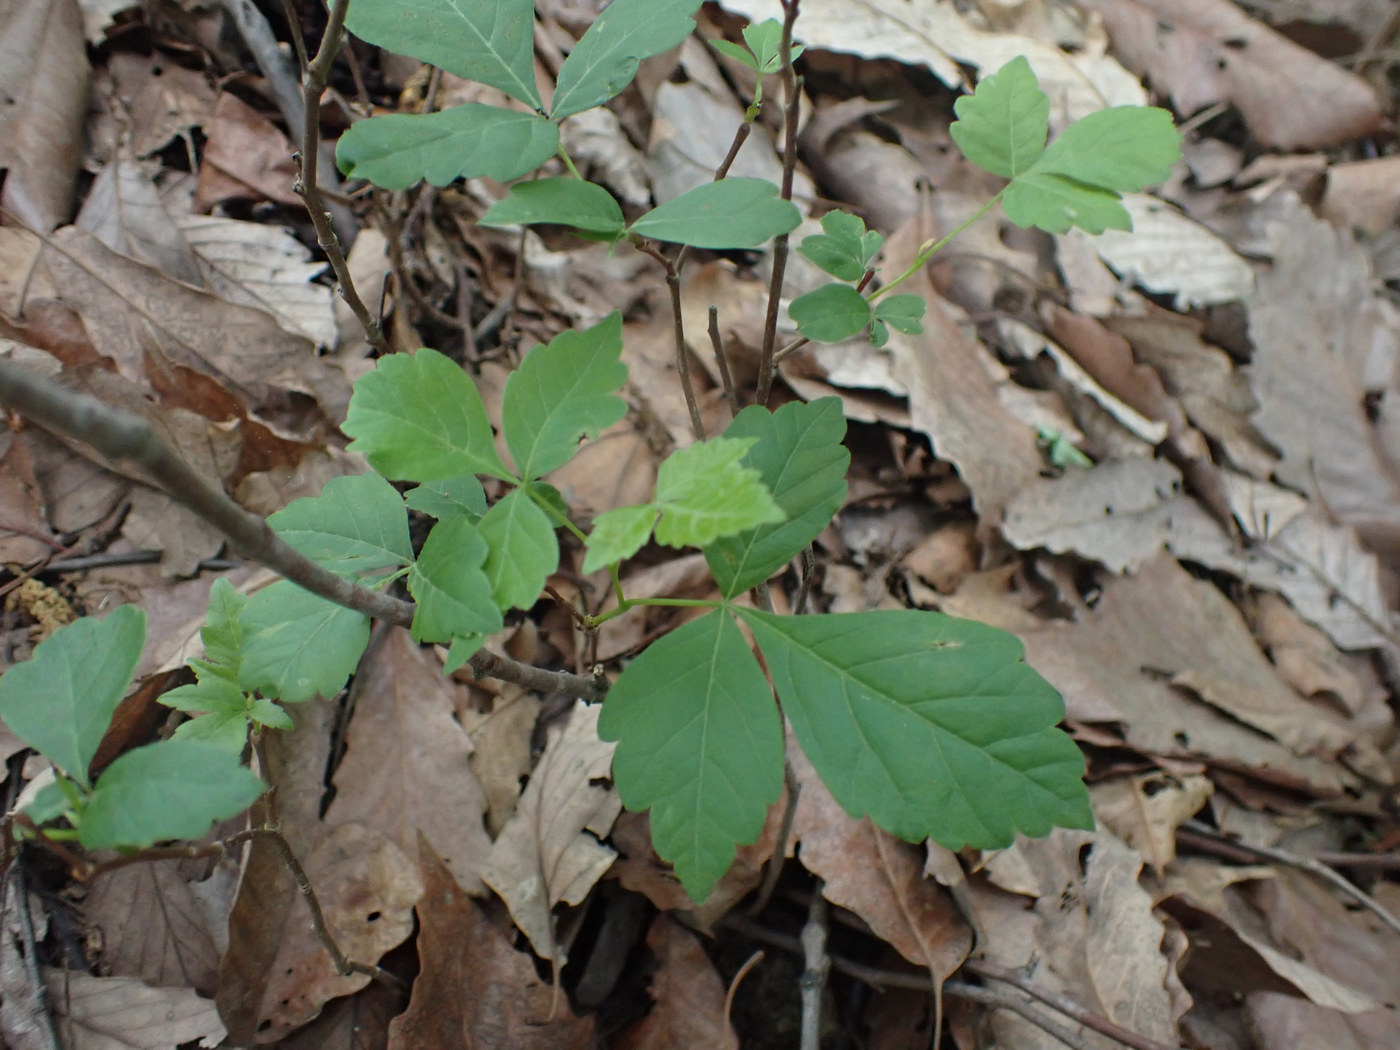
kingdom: Plantae
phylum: Tracheophyta
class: Magnoliopsida
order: Sapindales
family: Anacardiaceae
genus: Rhus
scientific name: Rhus aromatica
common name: Aromatic sumac
